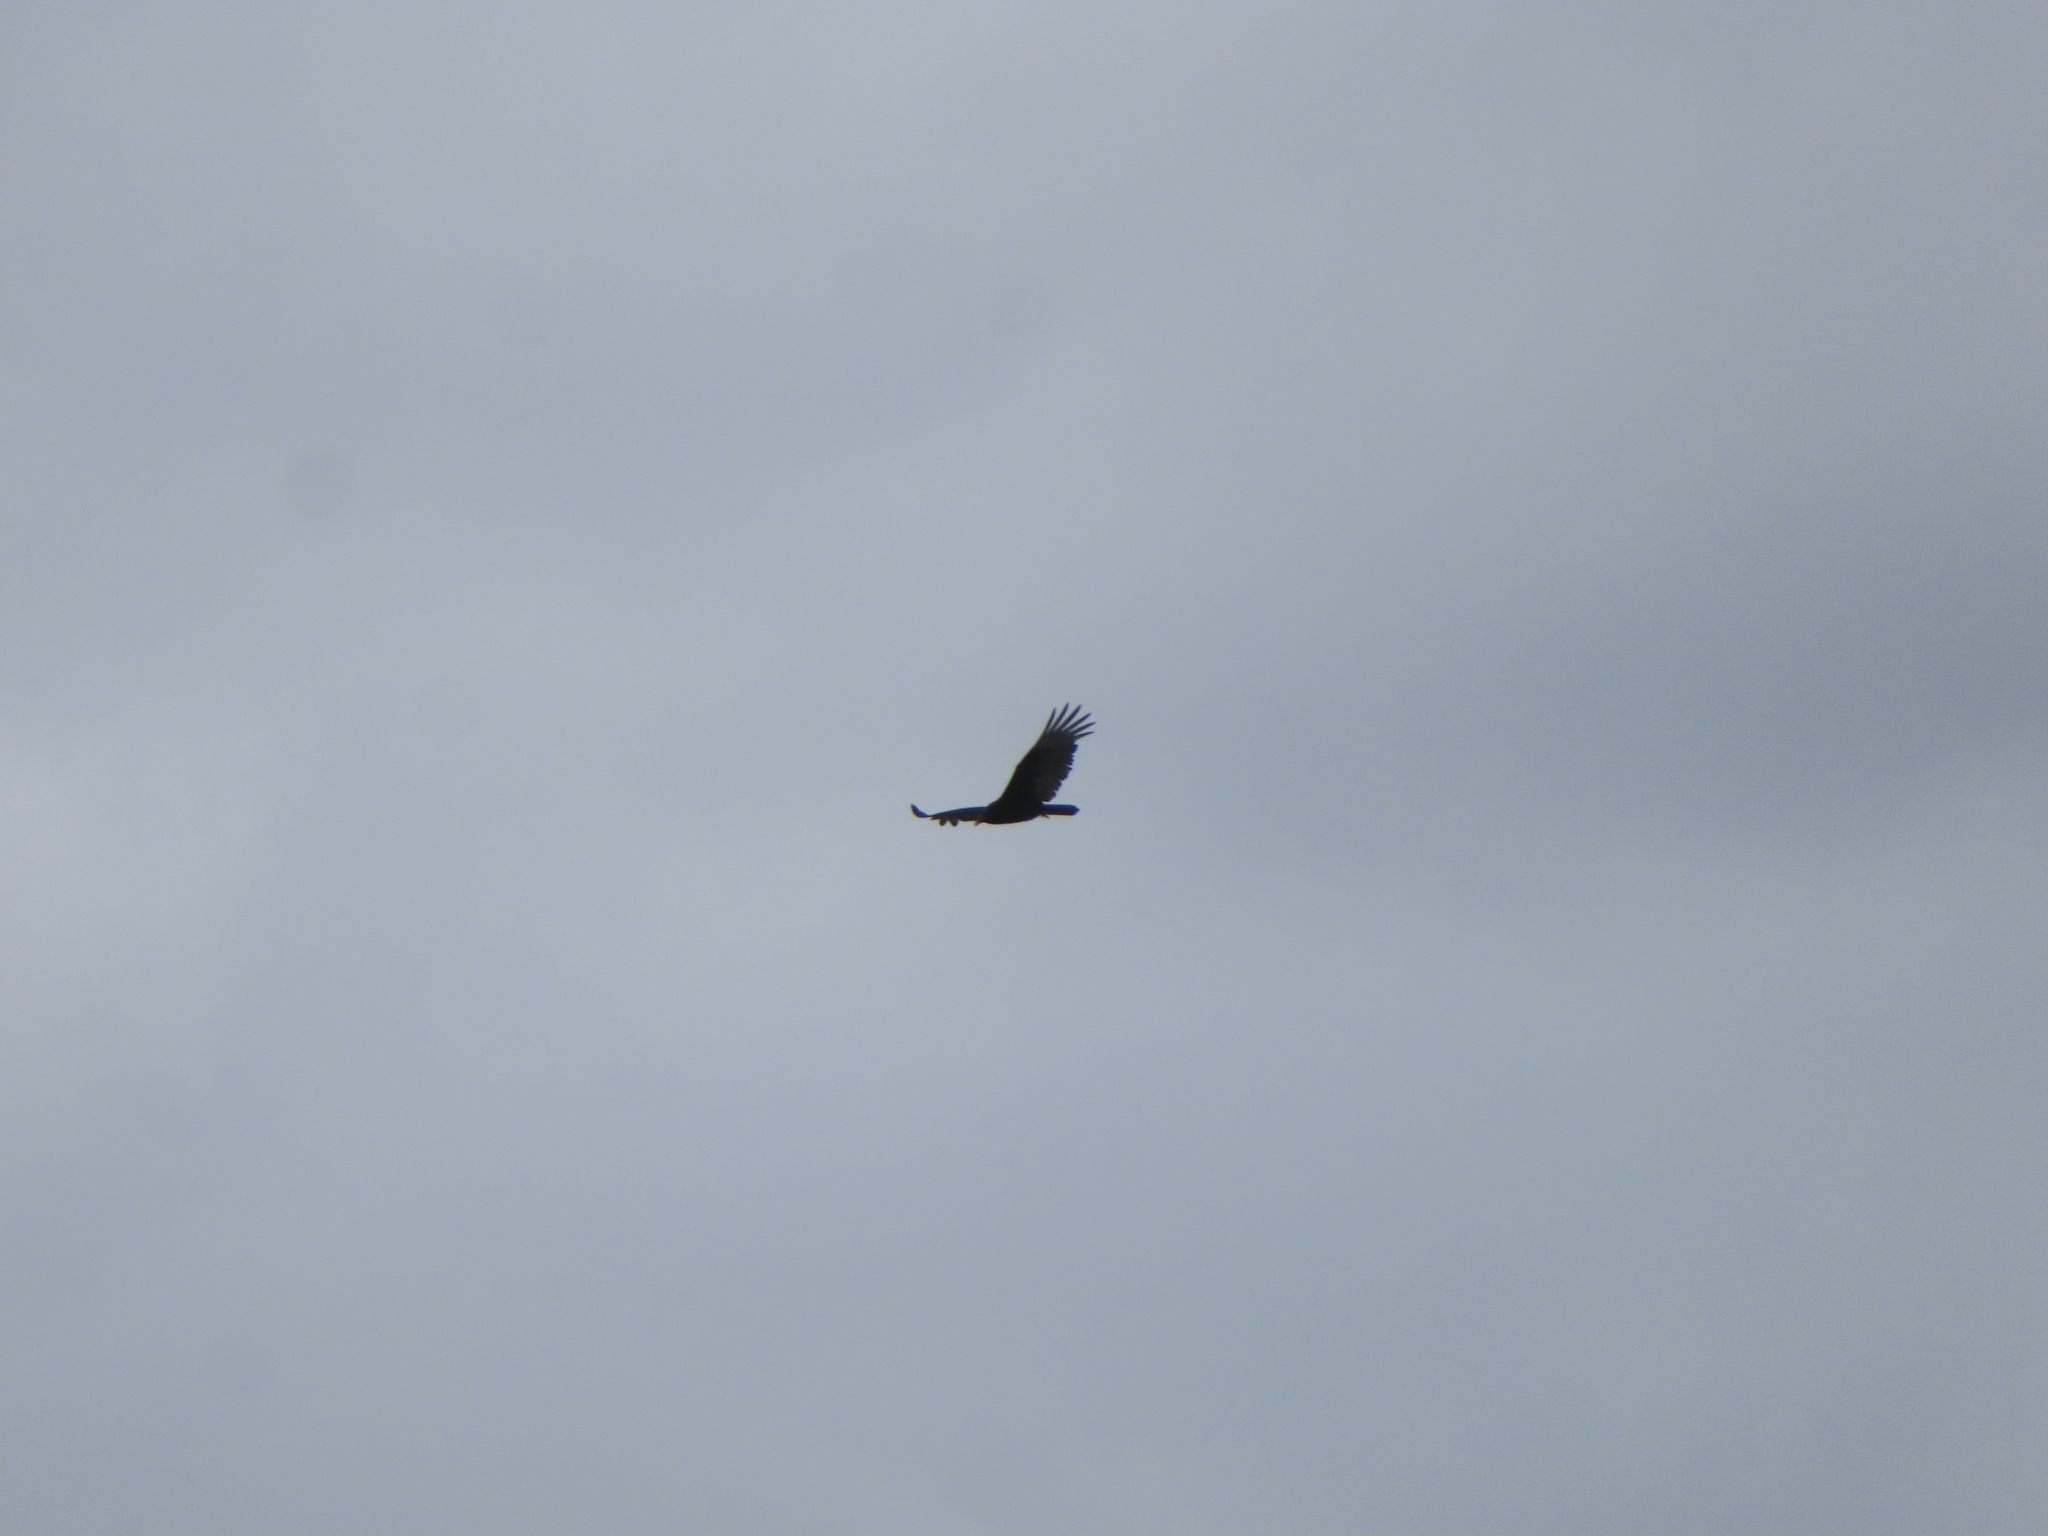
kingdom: Animalia
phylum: Chordata
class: Aves
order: Accipitriformes
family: Cathartidae
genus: Cathartes
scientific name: Cathartes aura
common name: Turkey vulture
